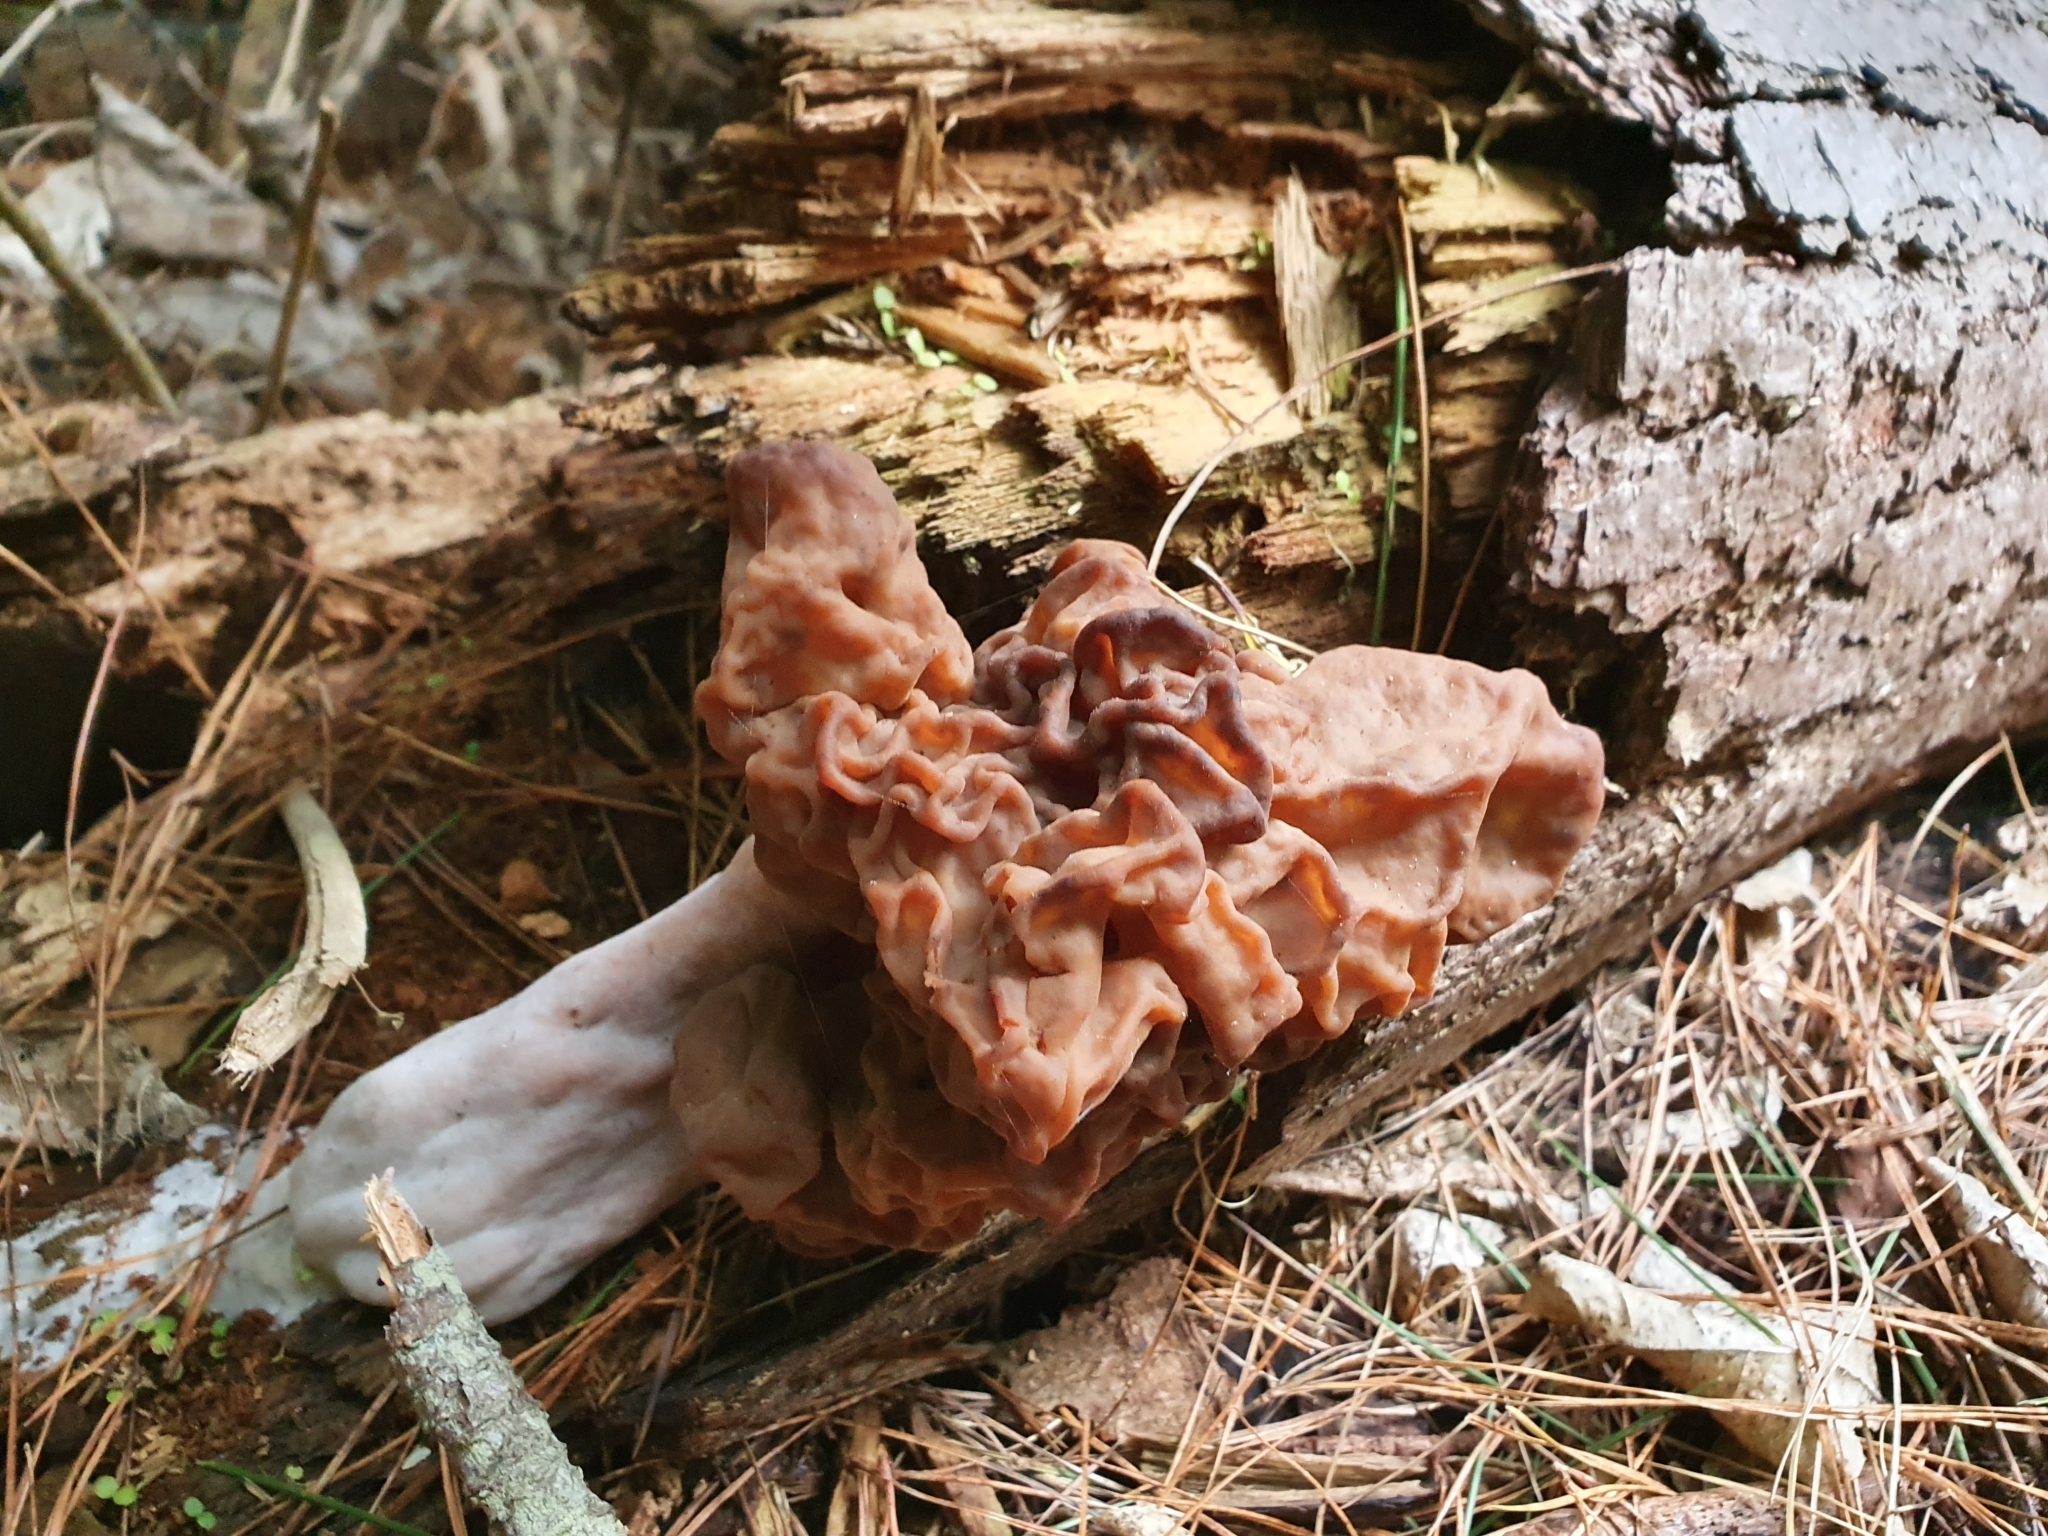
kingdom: Fungi
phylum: Ascomycota
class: Pezizomycetes
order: Pezizales
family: Discinaceae
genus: Gyromitra
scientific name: Gyromitra tasmanica
